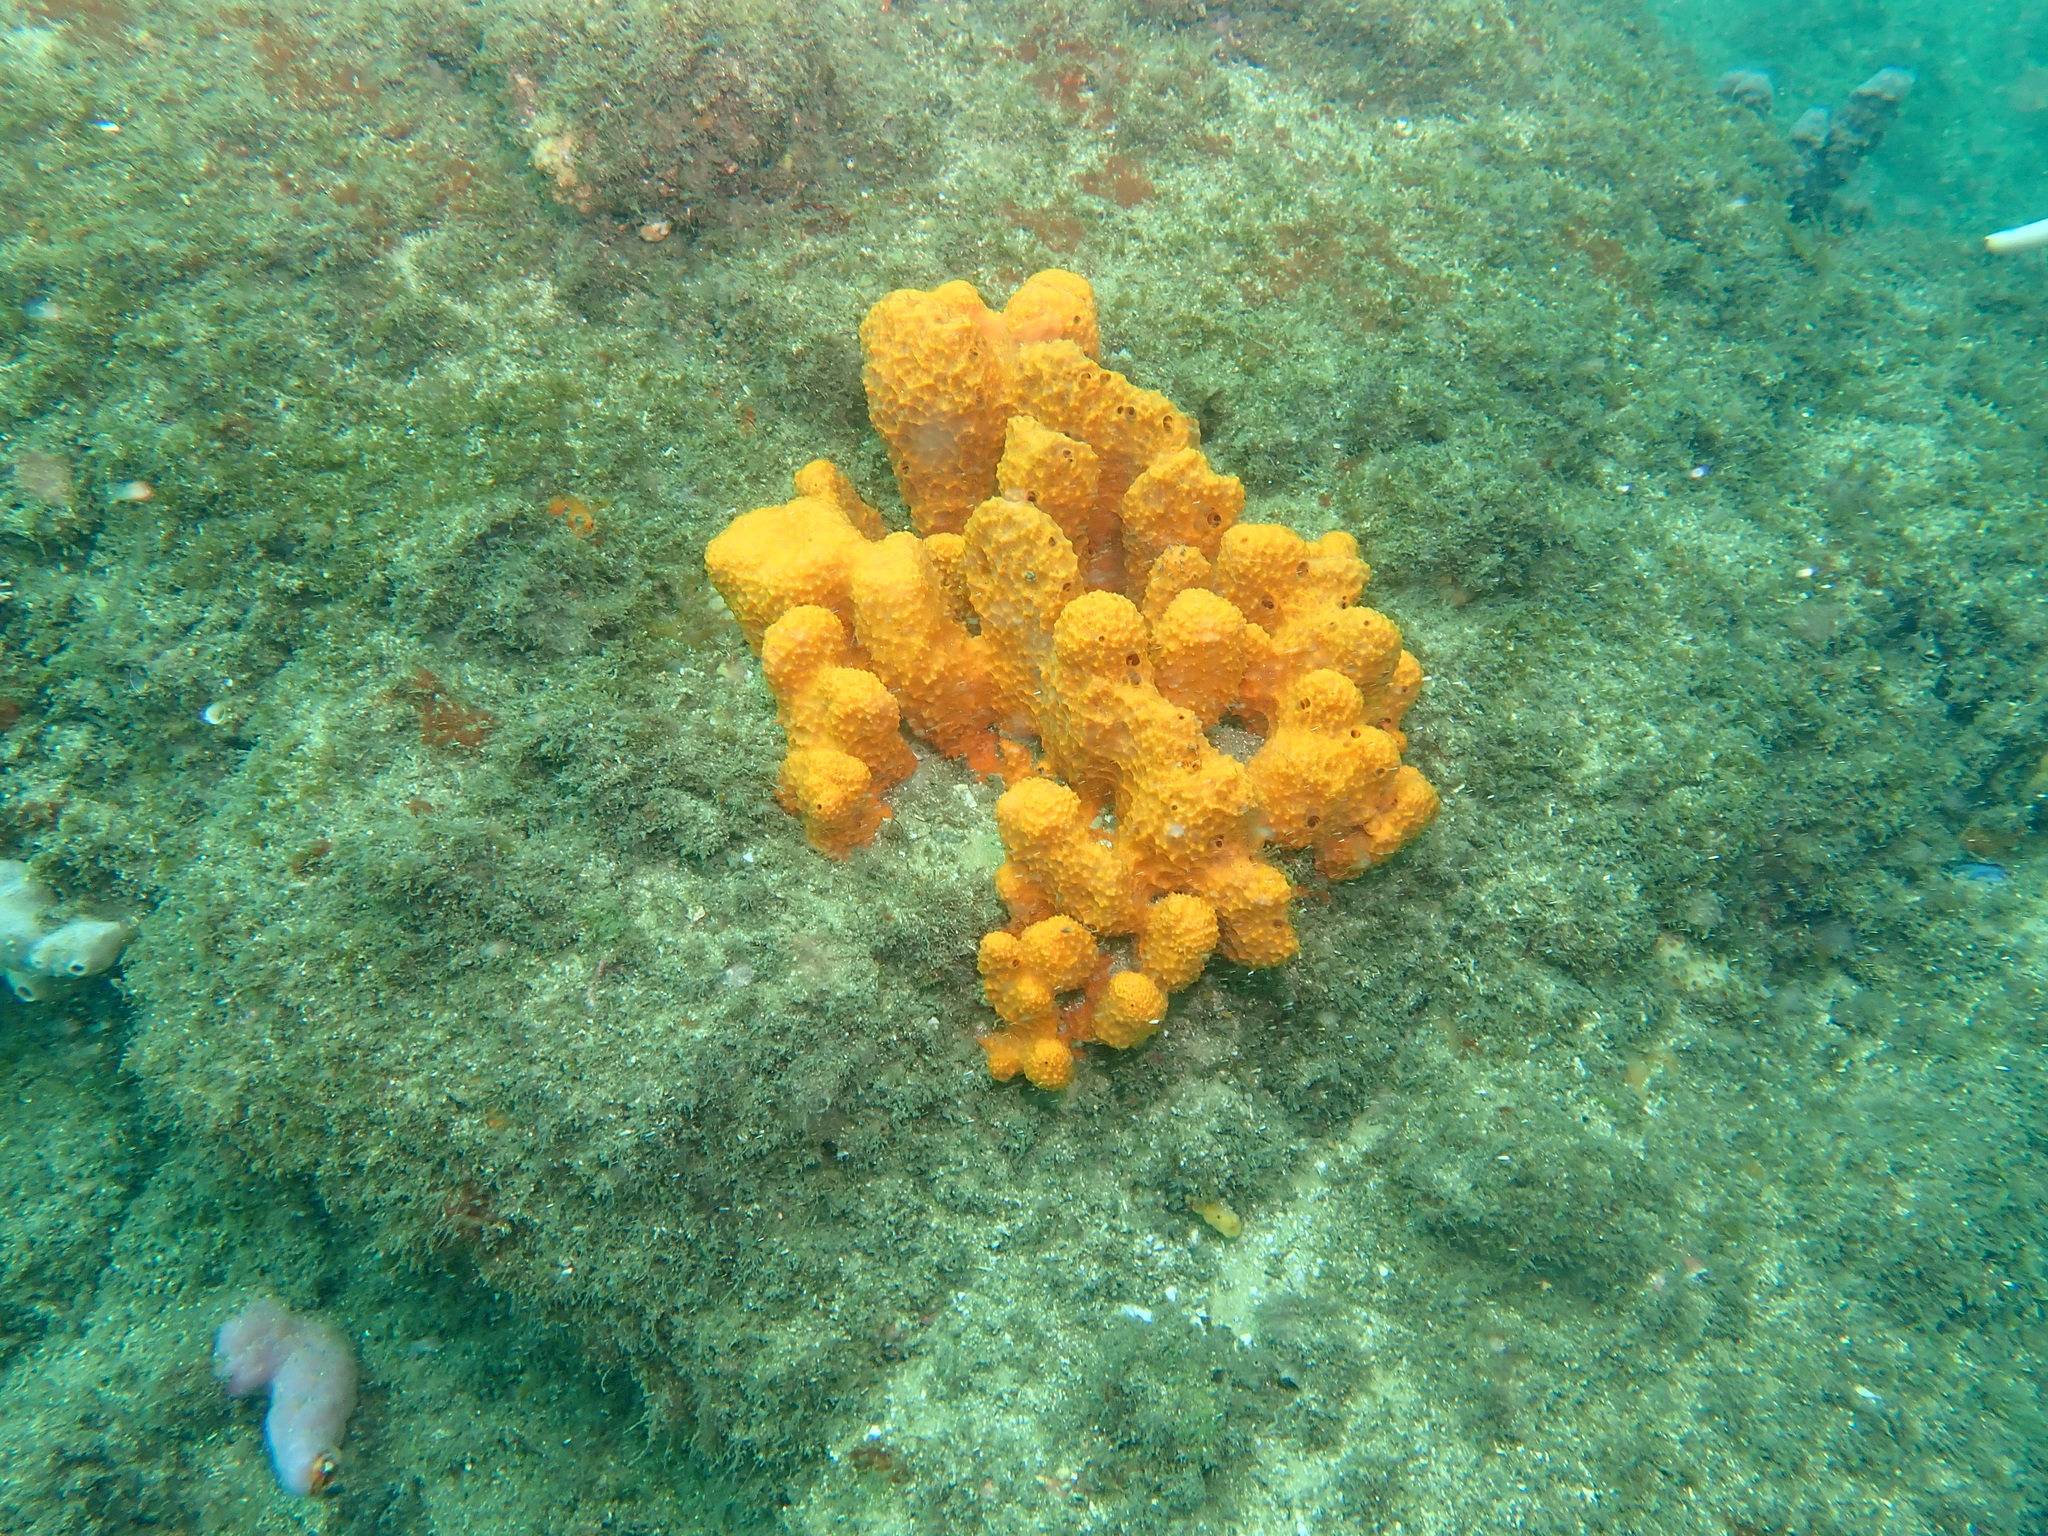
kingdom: Animalia
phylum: Porifera
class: Demospongiae
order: Scopalinida
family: Scopalinidae
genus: Scopalina
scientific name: Scopalina australiensis
